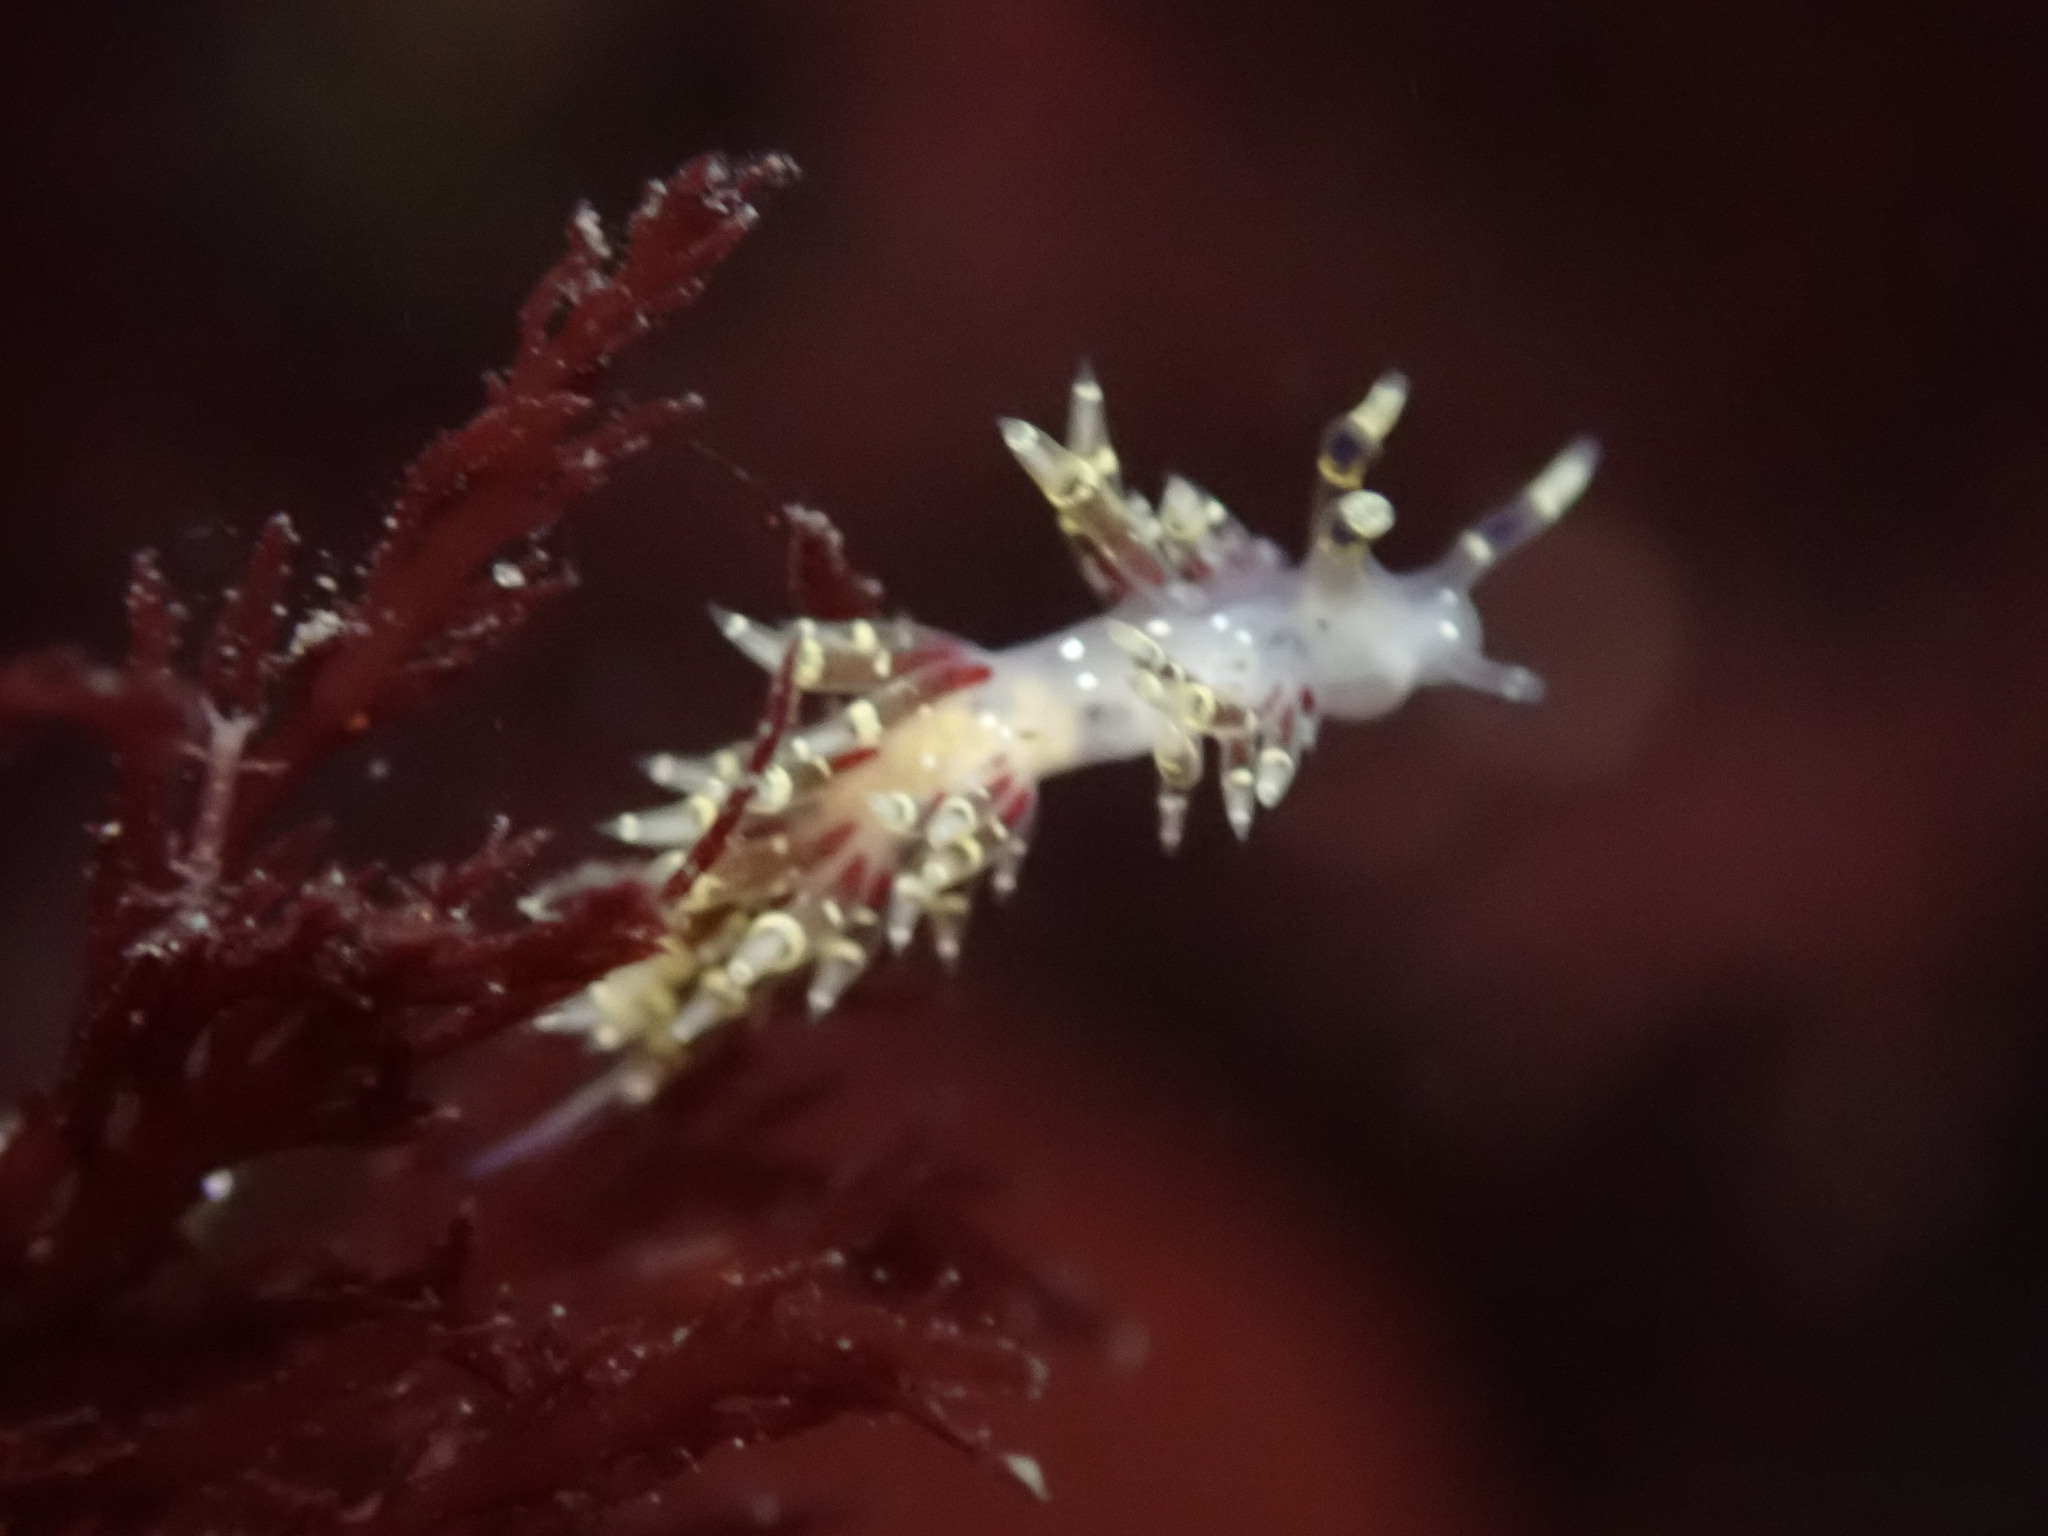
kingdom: Animalia
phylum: Mollusca
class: Gastropoda
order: Nudibranchia
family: Abronicidae
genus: Abronica
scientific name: Abronica abronia
